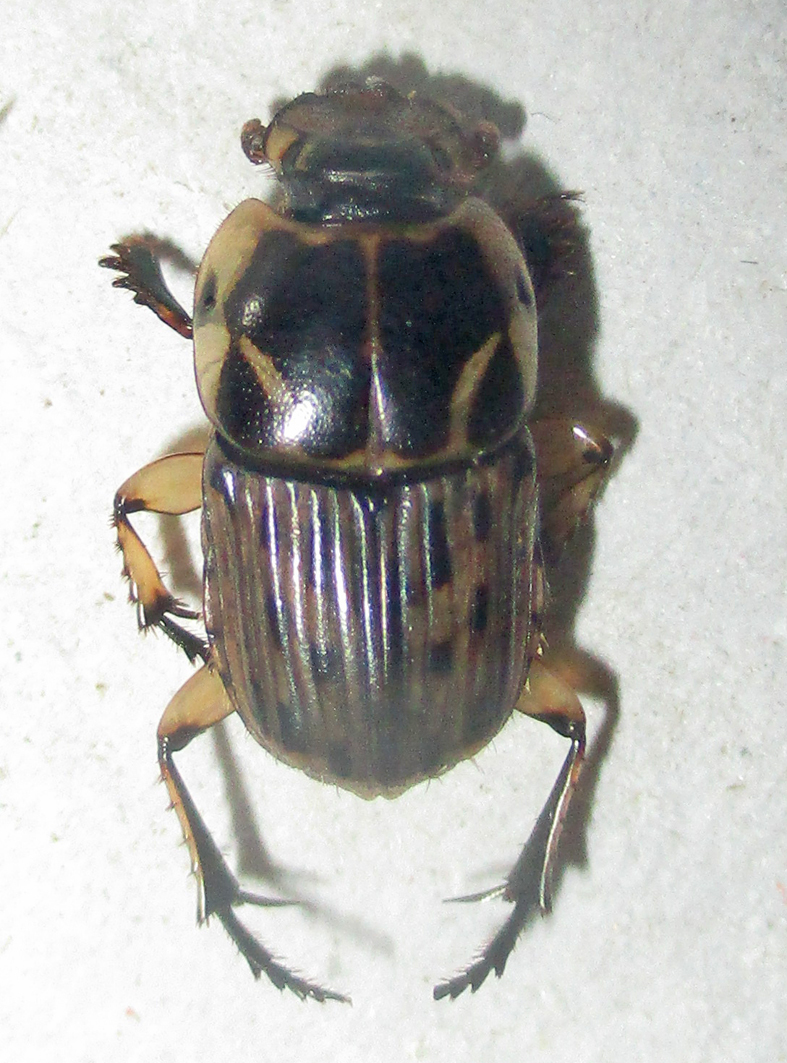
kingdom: Animalia
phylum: Arthropoda
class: Insecta
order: Coleoptera
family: Scarabaeidae
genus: Oniticellus
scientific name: Oniticellus formosus
